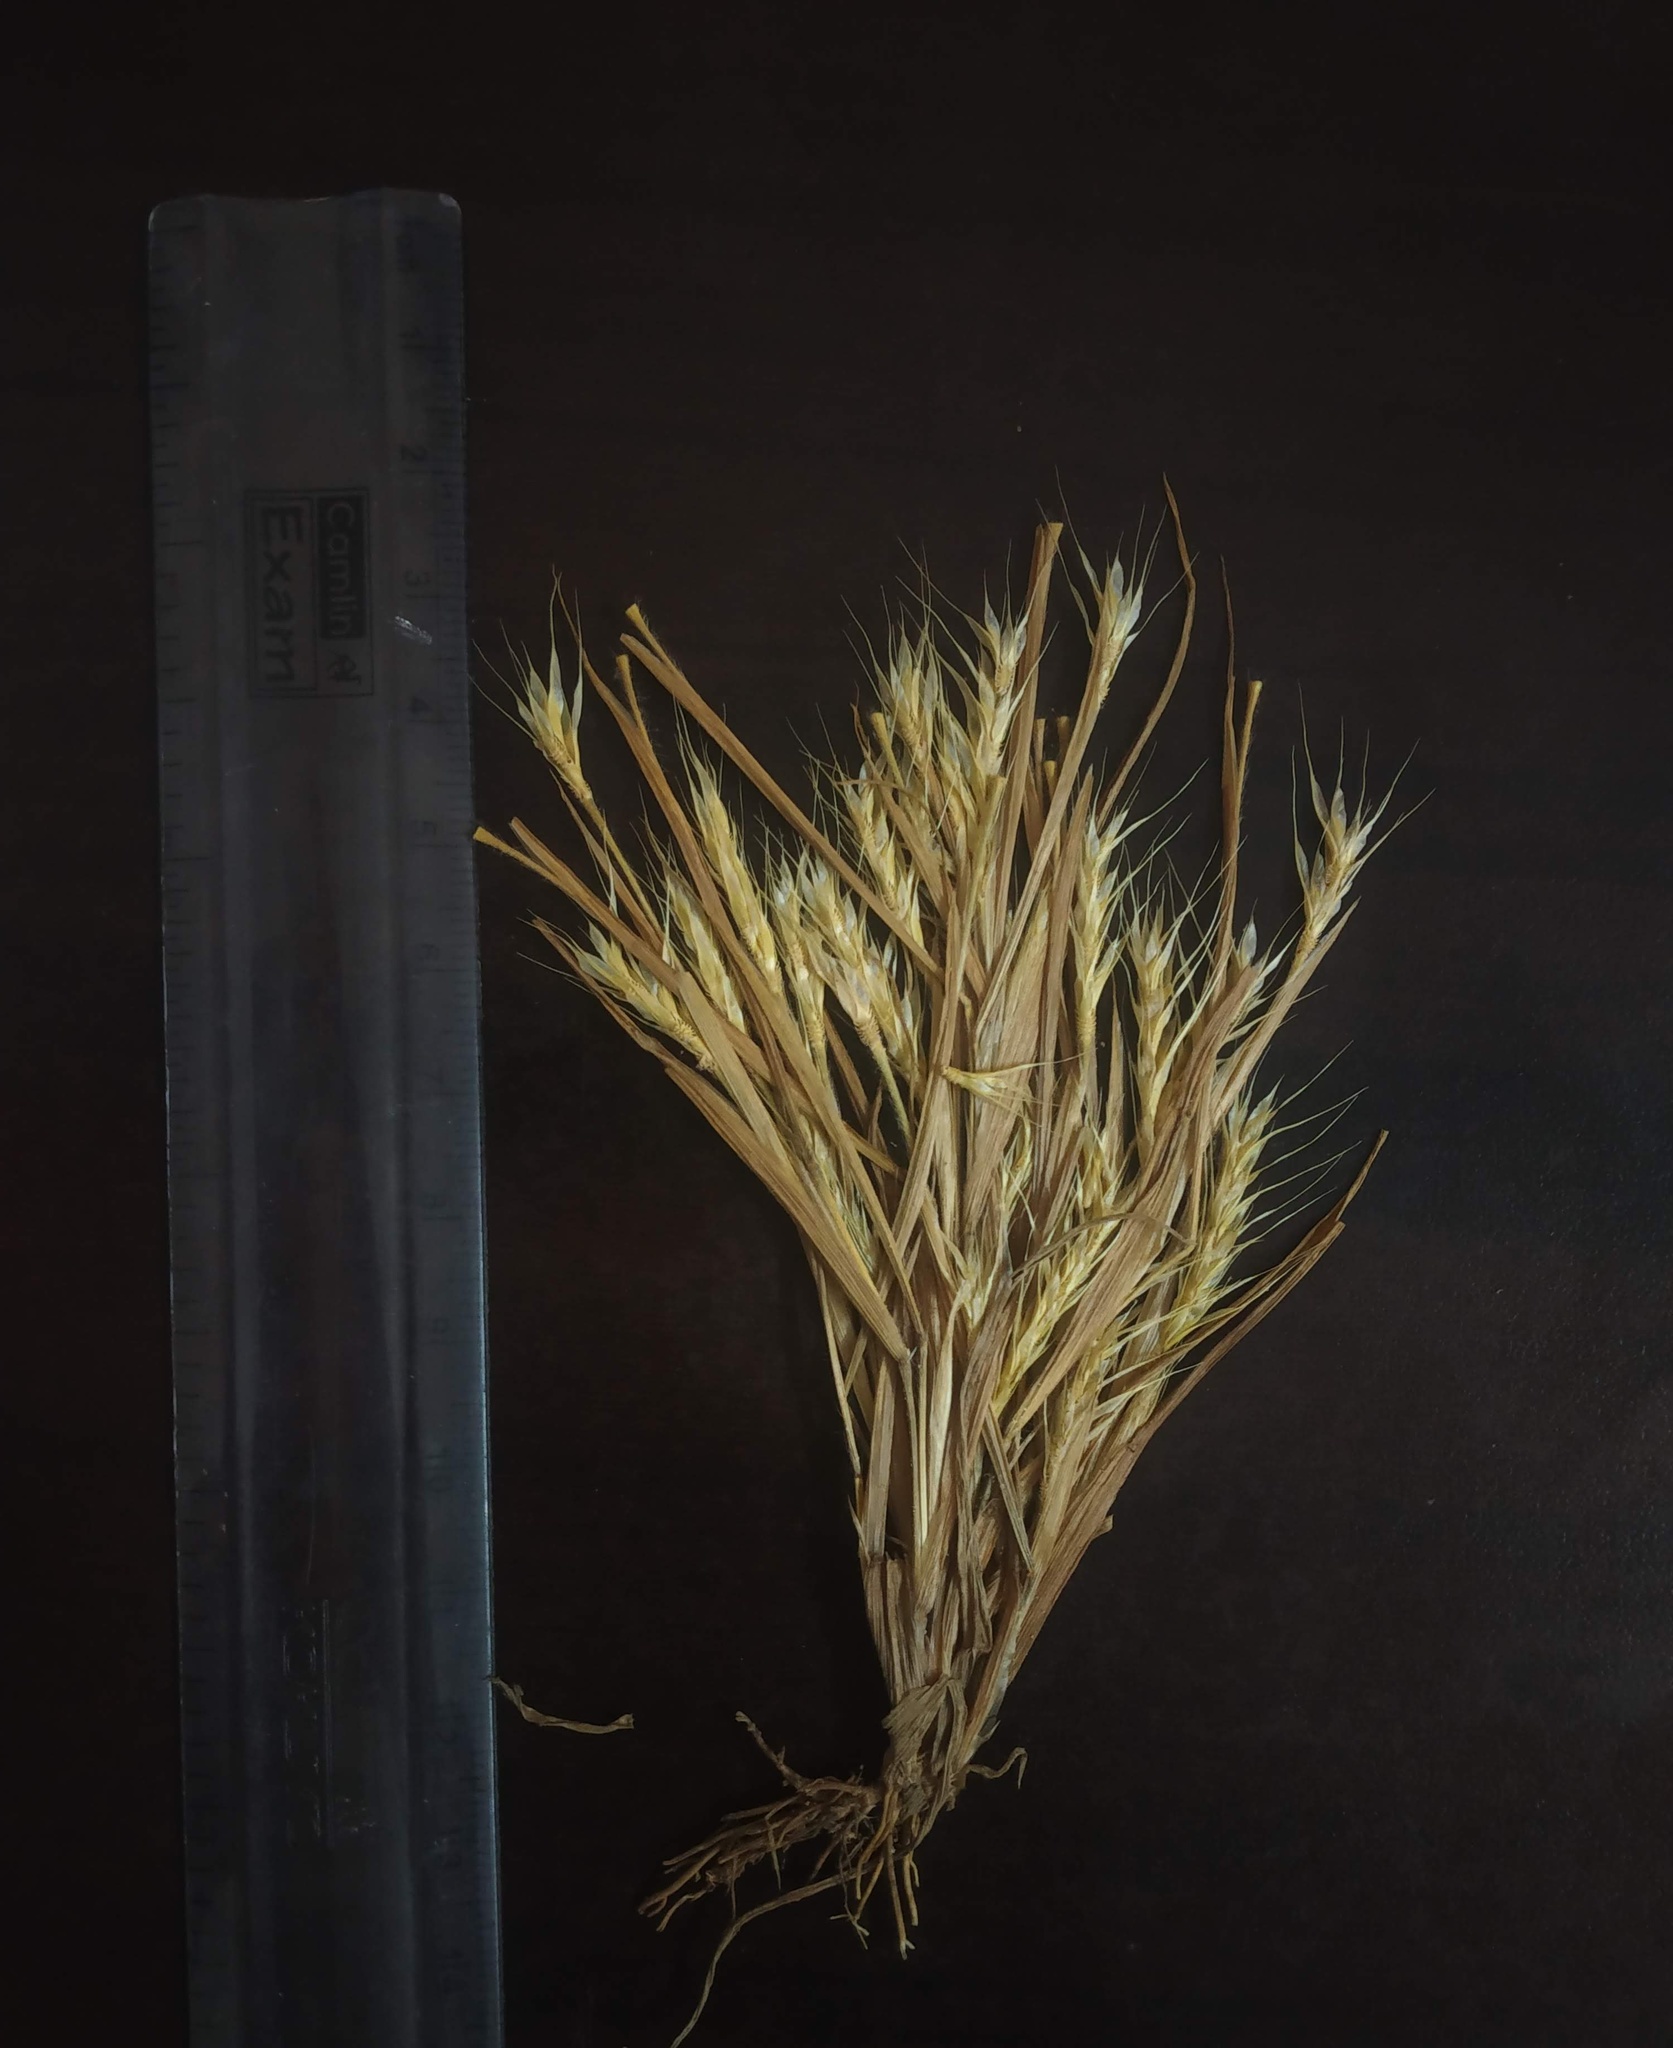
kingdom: Plantae
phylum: Tracheophyta
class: Liliopsida
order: Poales
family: Poaceae
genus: Glyphochloa
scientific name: Glyphochloa forficulata
